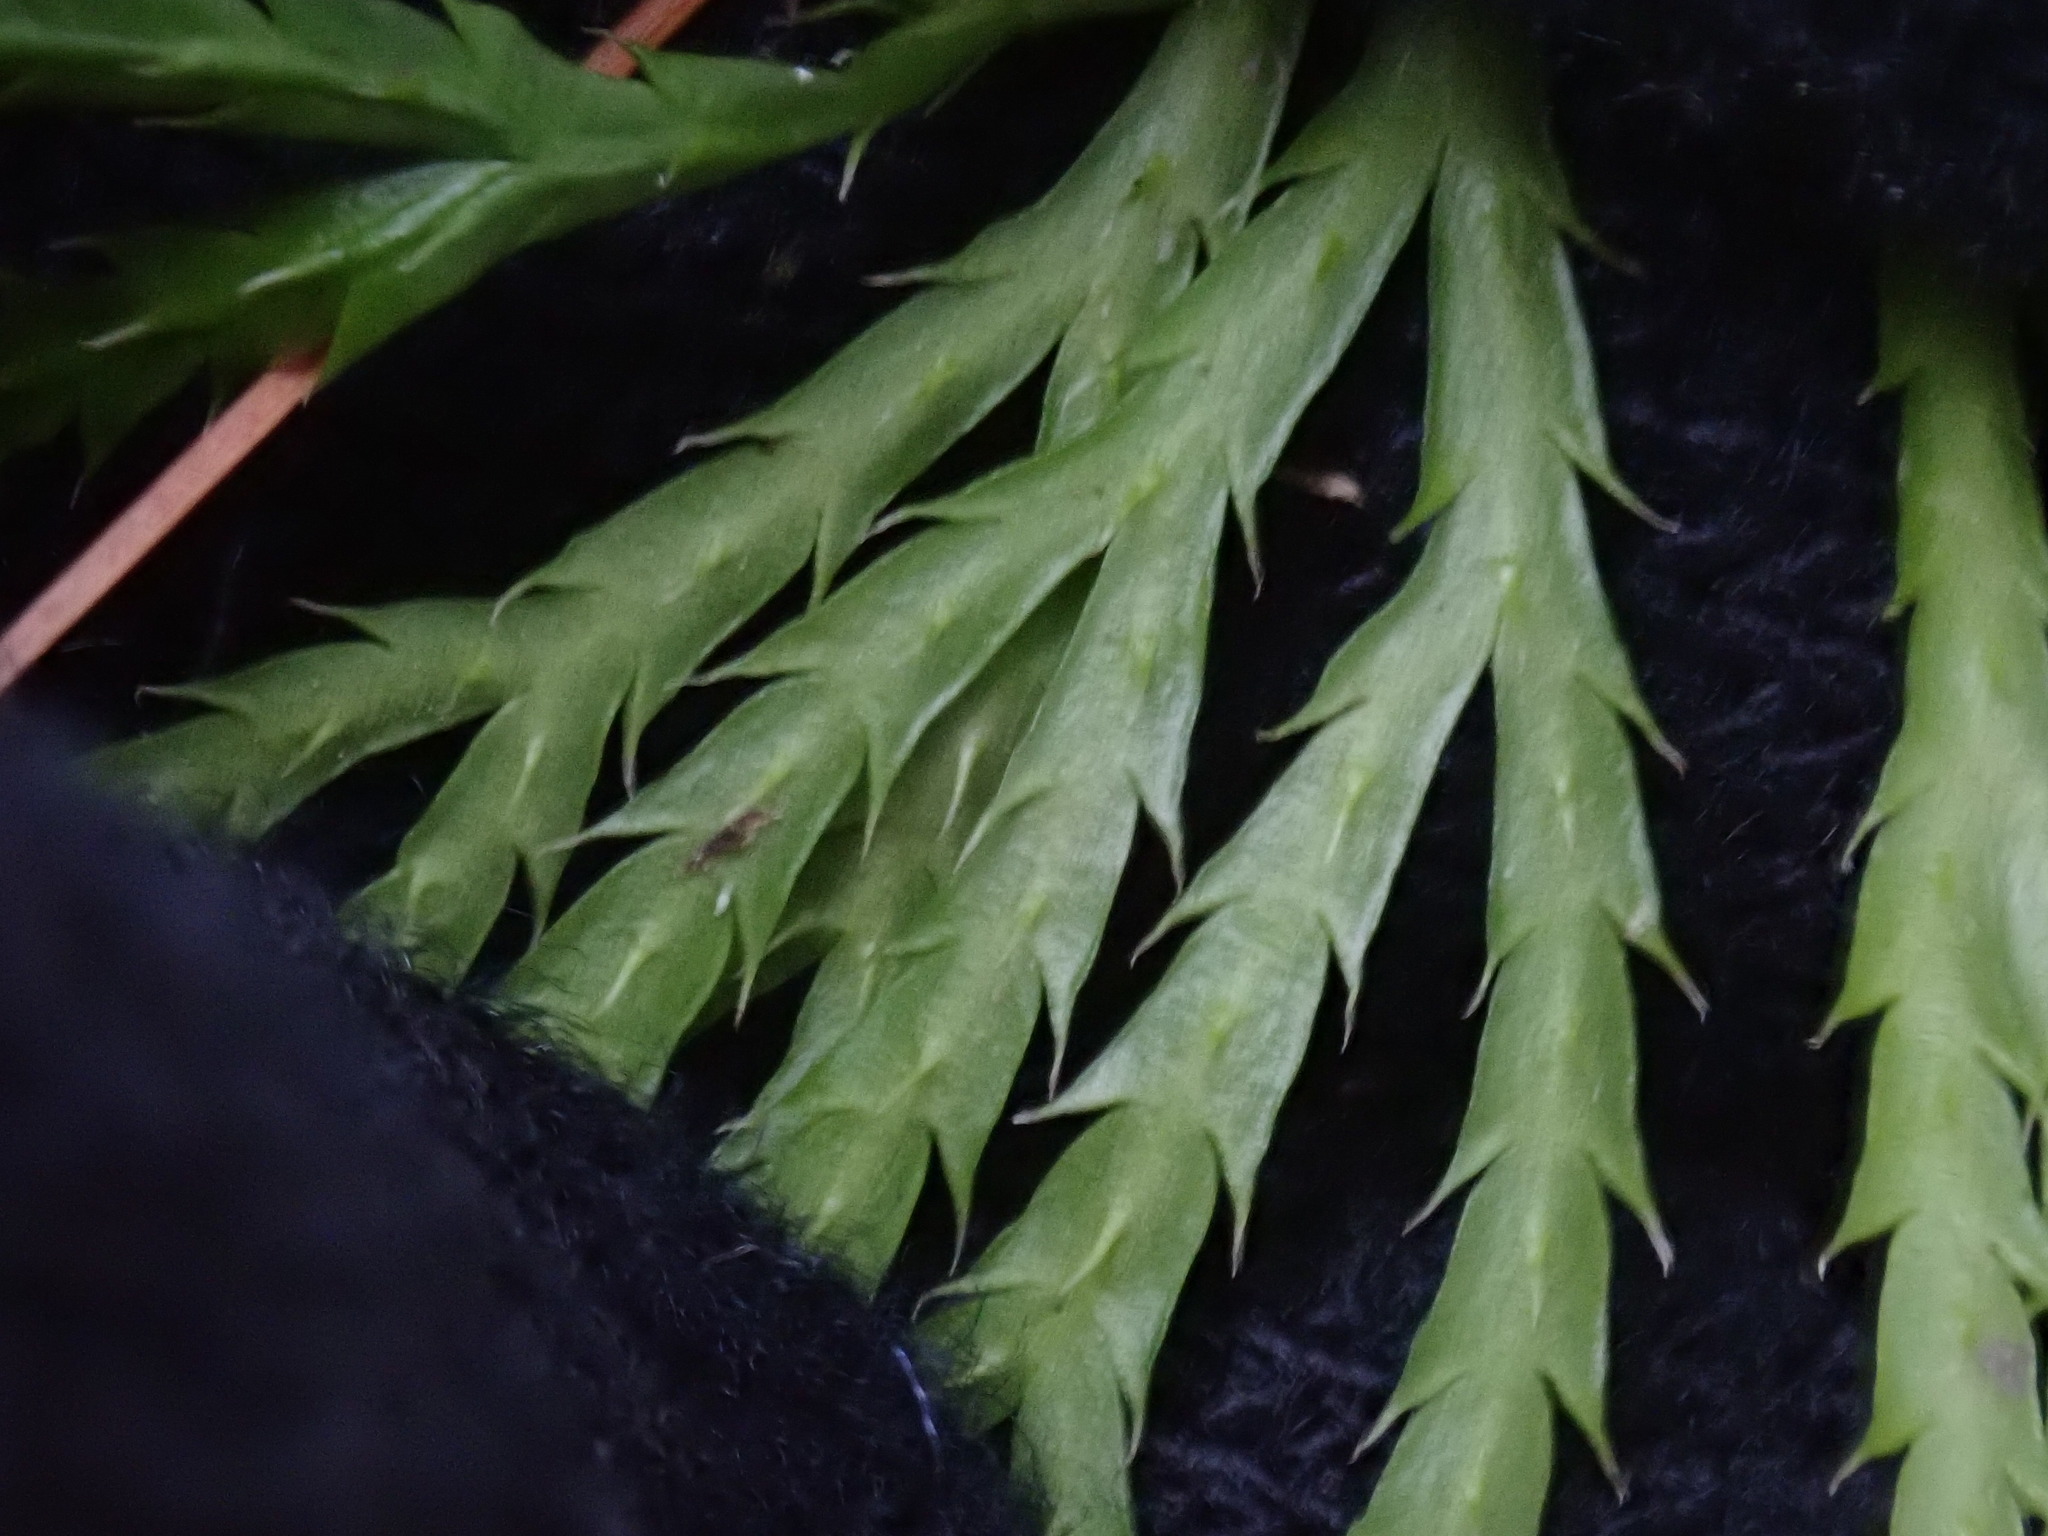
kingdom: Plantae
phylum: Tracheophyta
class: Lycopodiopsida
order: Lycopodiales
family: Lycopodiaceae
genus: Diphasiastrum
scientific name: Diphasiastrum digitatum
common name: Southern running-pine
